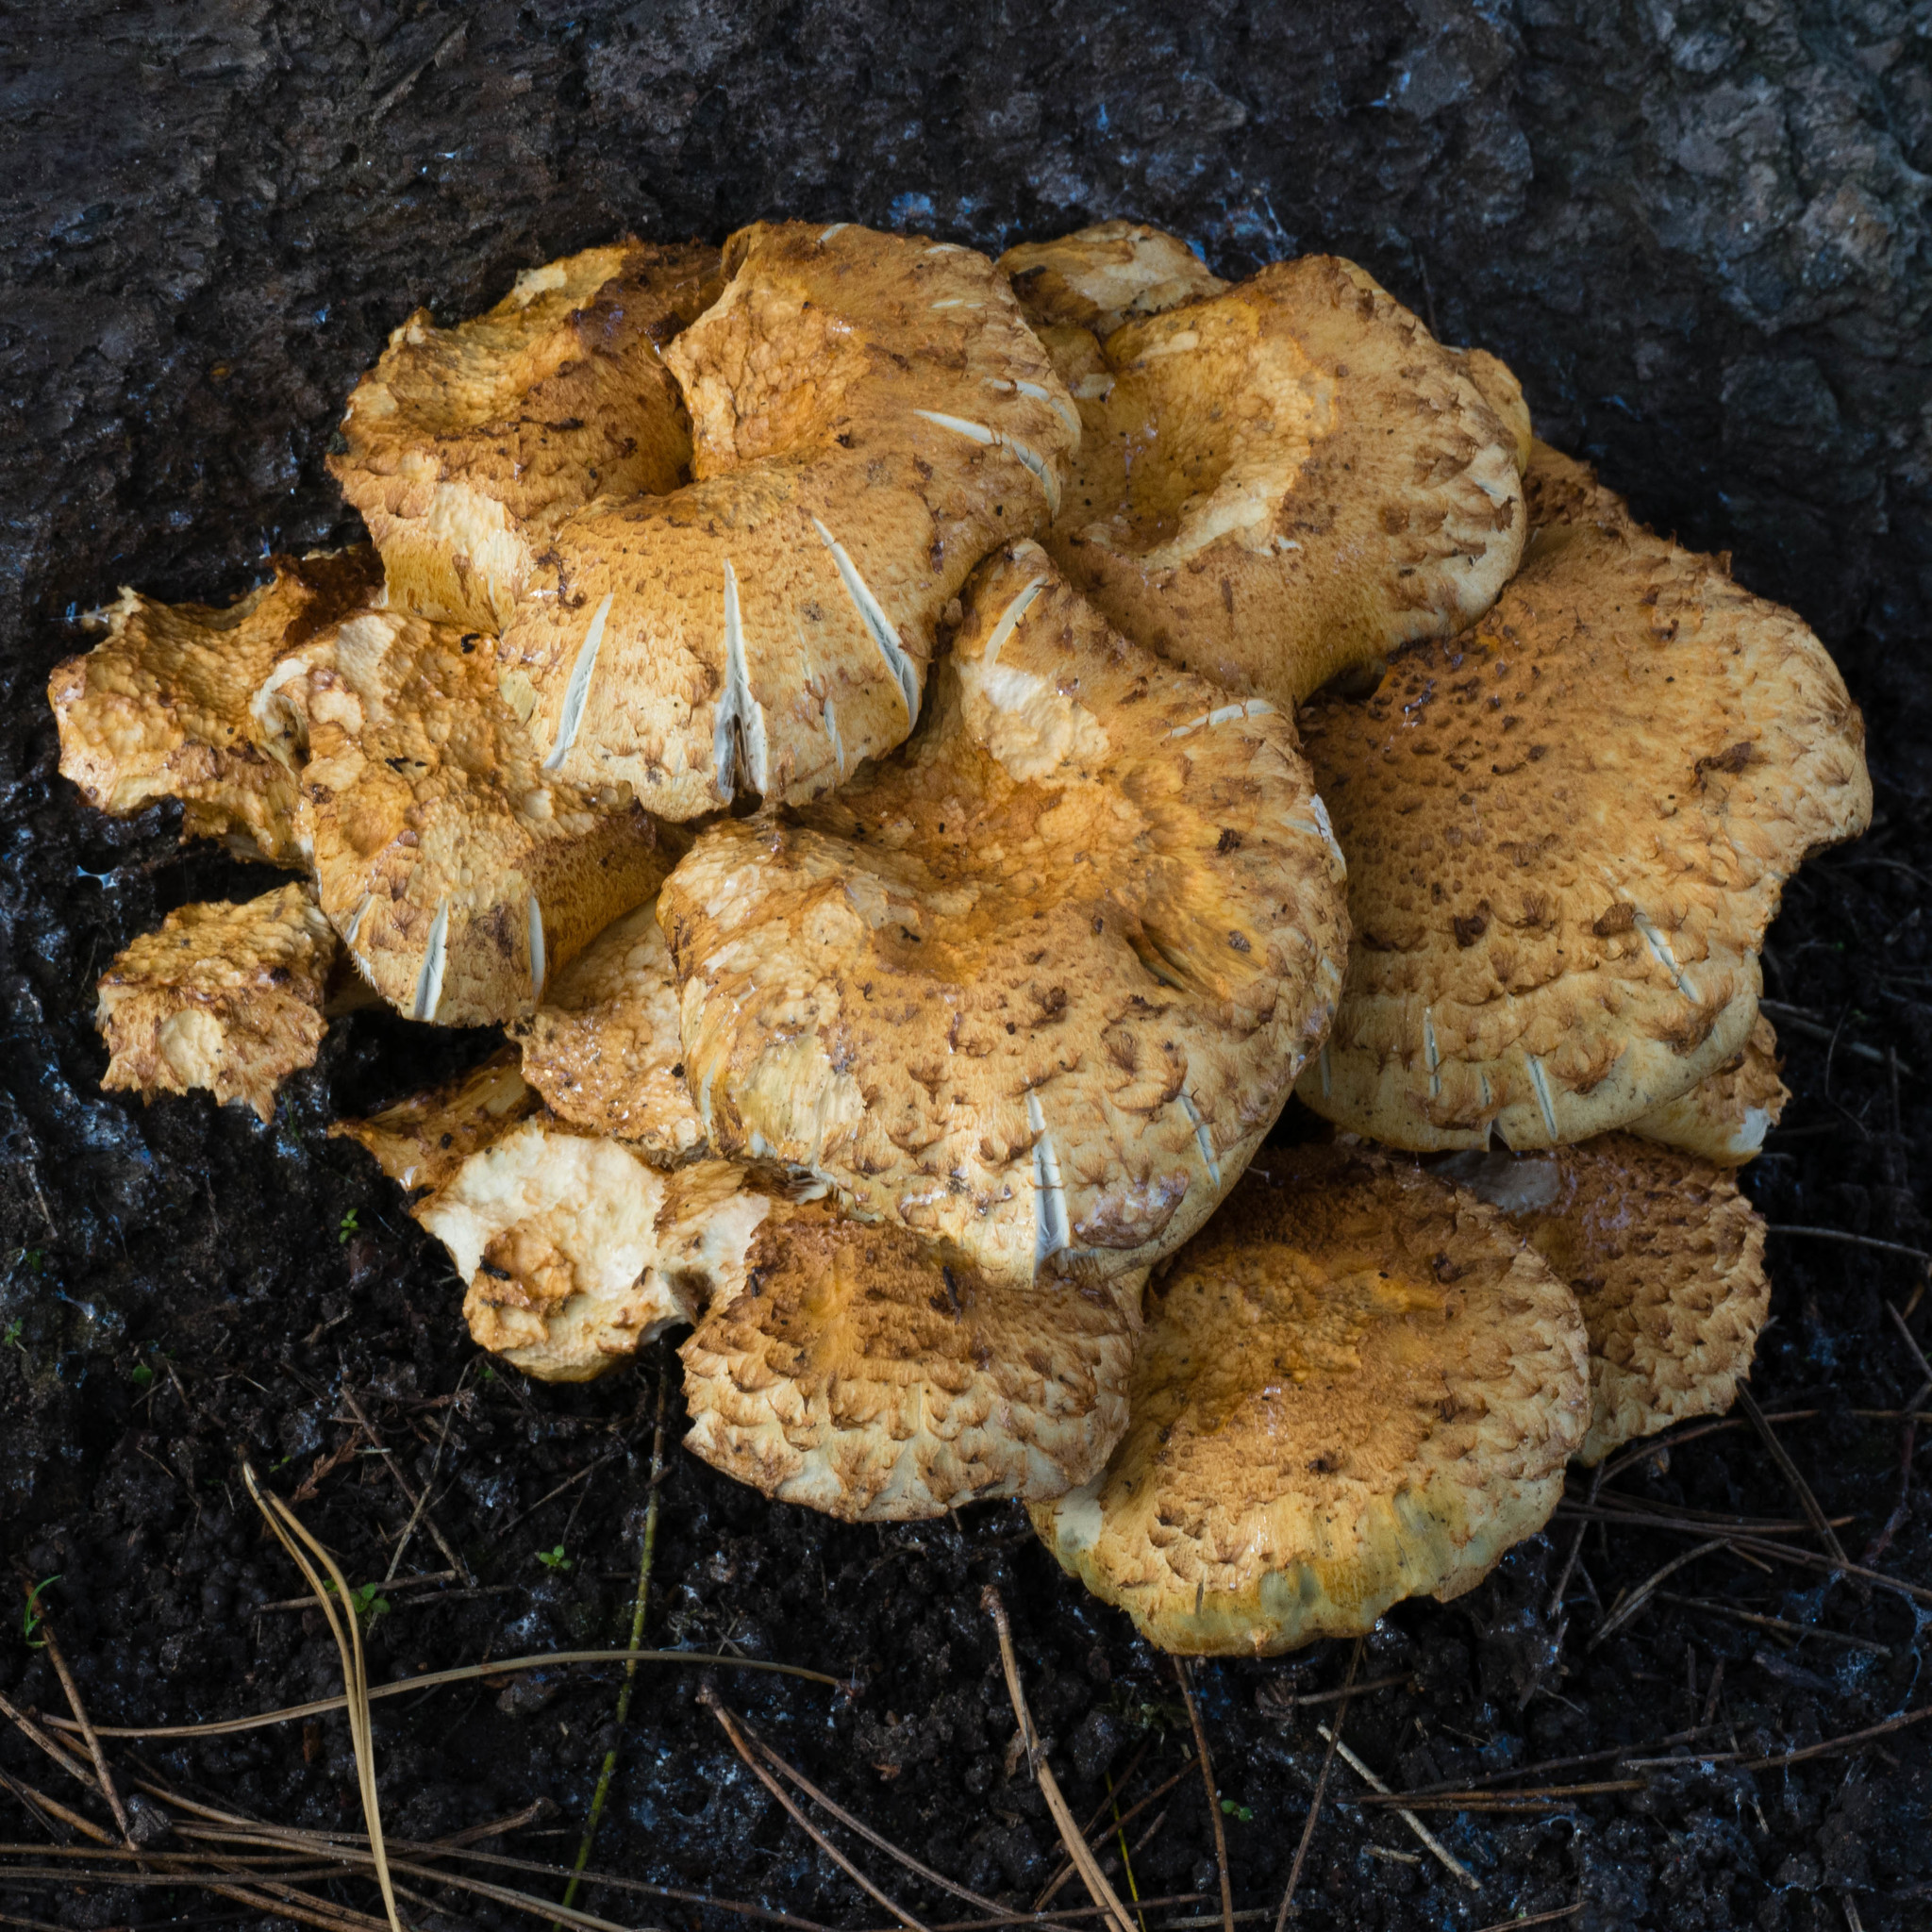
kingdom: Fungi
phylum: Basidiomycota
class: Agaricomycetes
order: Agaricales
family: Strophariaceae
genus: Pholiota
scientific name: Pholiota squarrosa
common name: Shaggy pholiota
